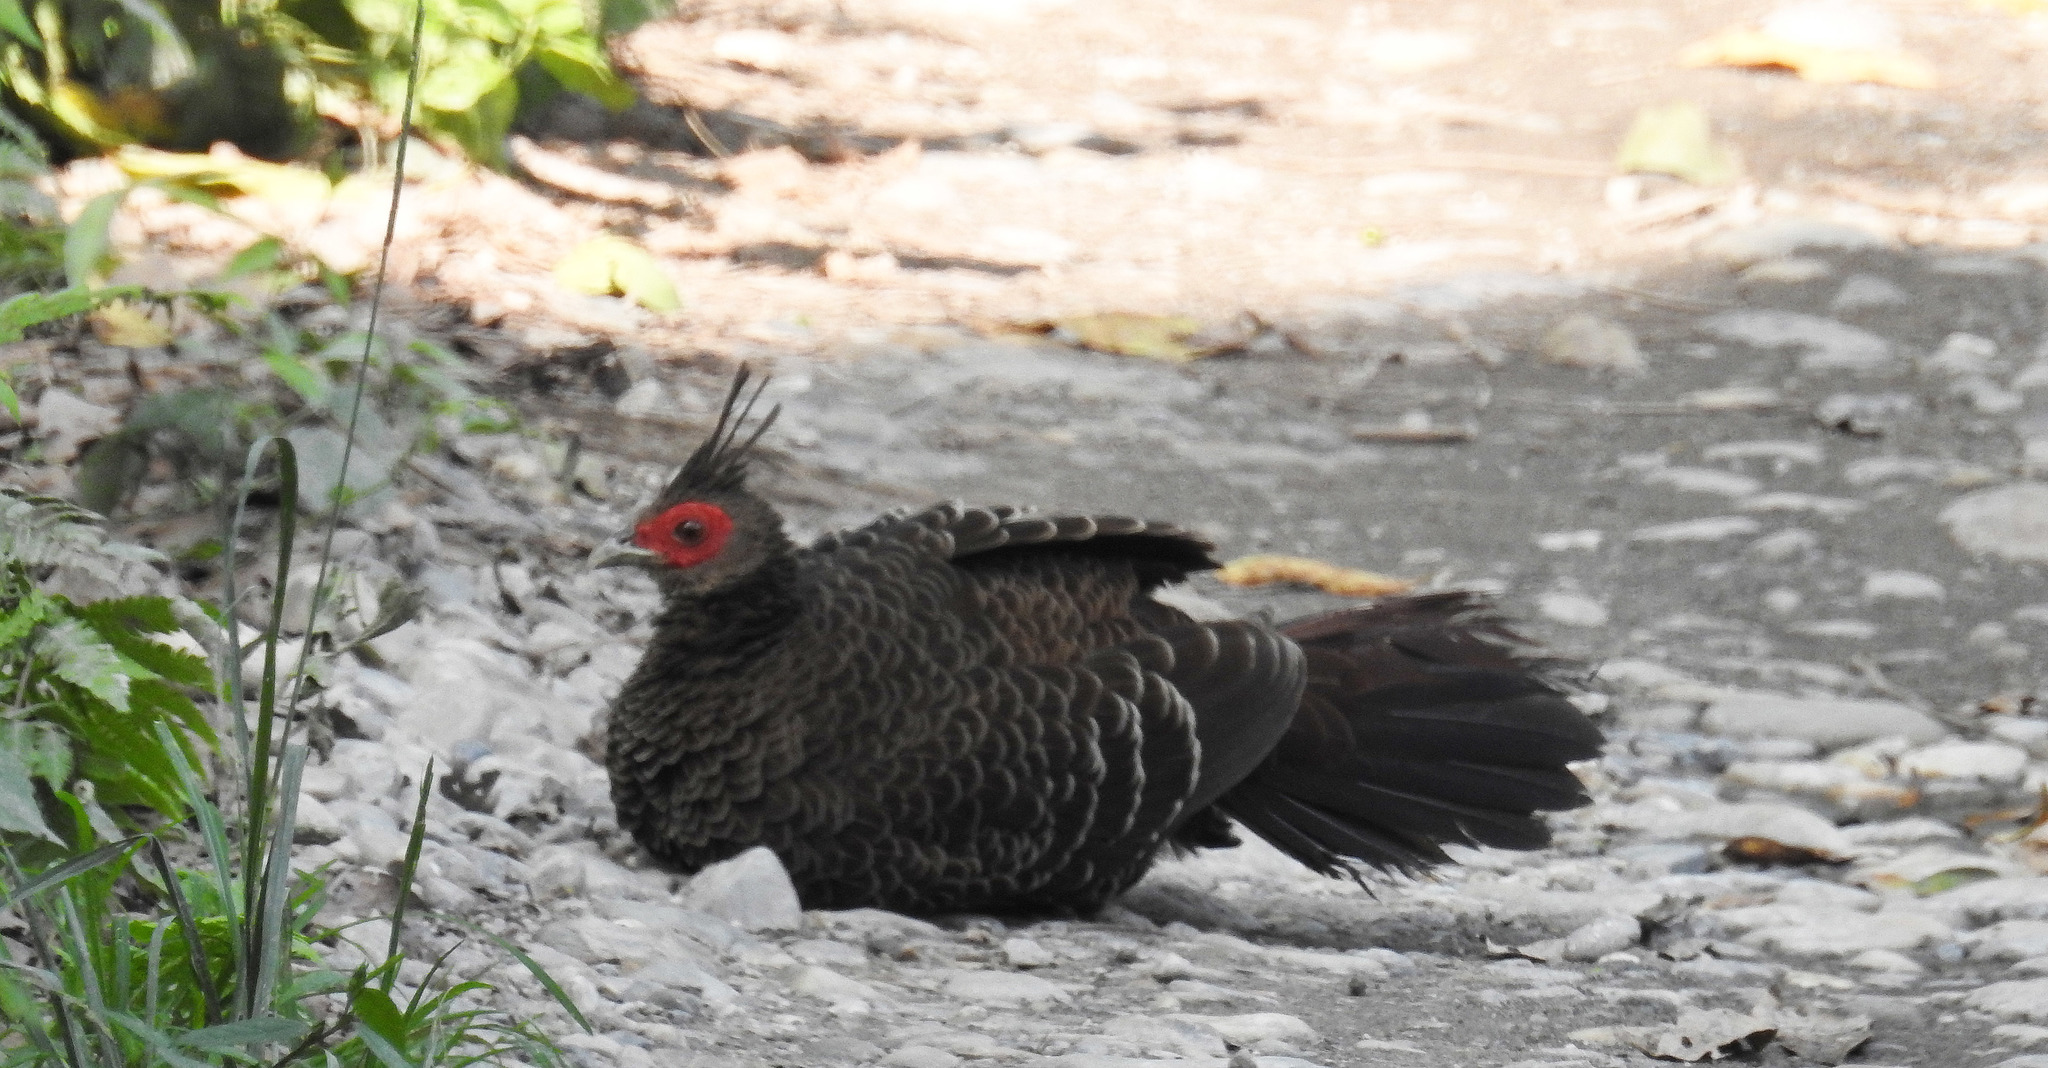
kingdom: Animalia
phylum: Chordata
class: Aves
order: Galliformes
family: Phasianidae
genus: Lophura
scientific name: Lophura leucomelanos
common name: Kalij pheasant
